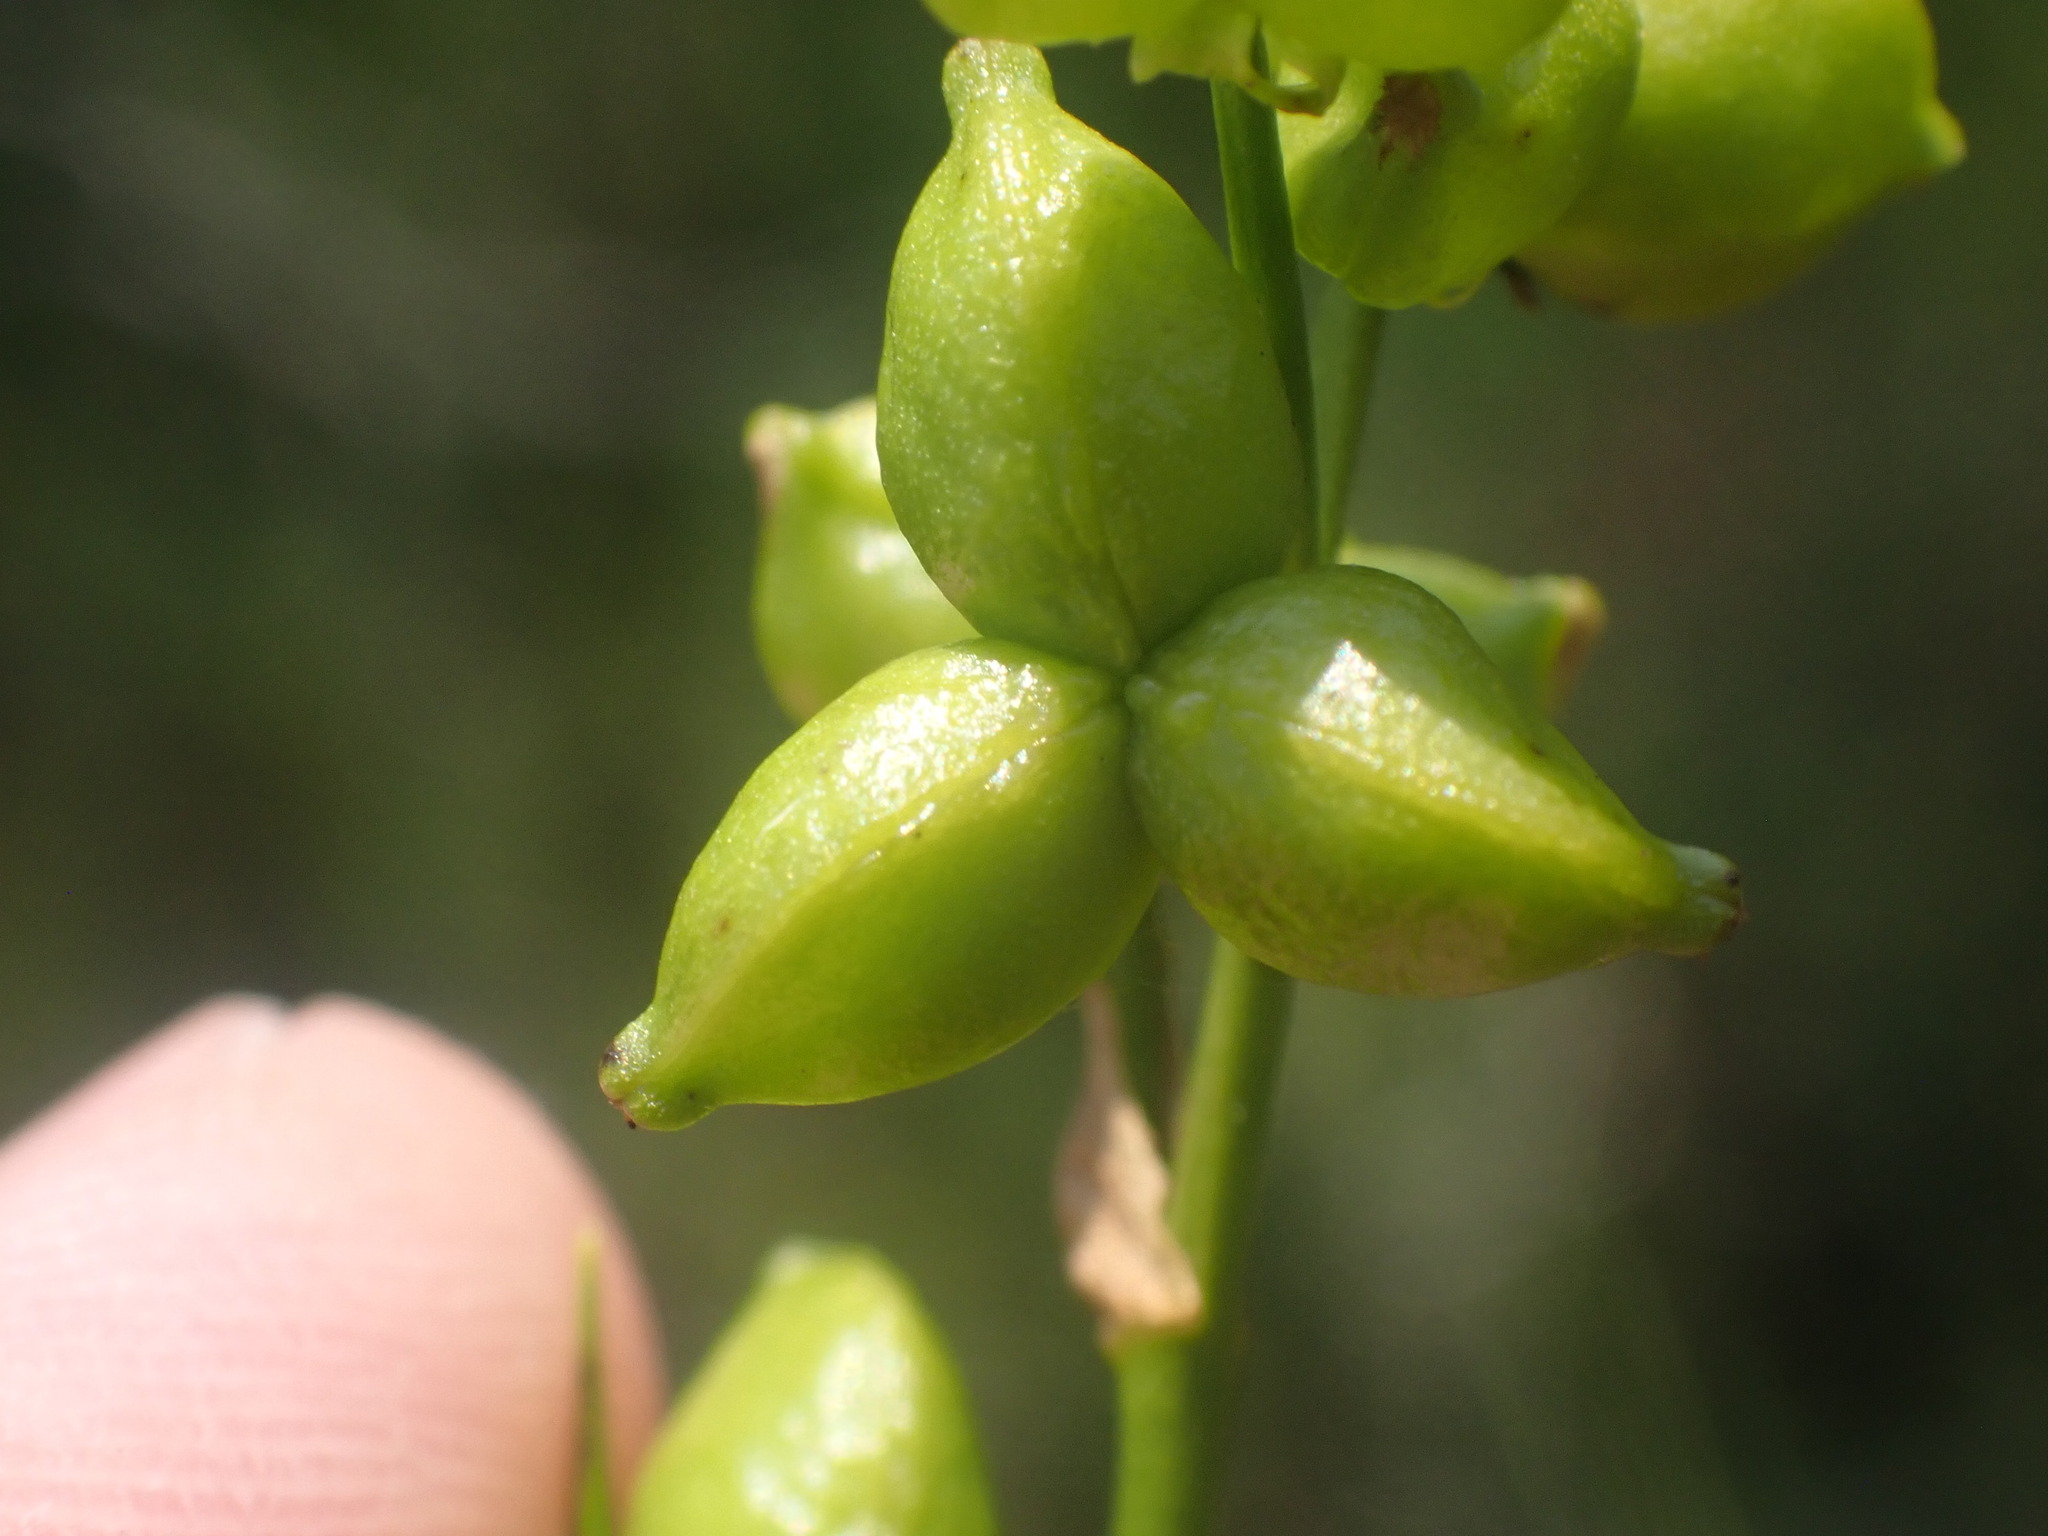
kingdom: Plantae
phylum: Tracheophyta
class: Liliopsida
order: Alismatales
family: Scheuchzeriaceae
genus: Scheuchzeria
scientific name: Scheuchzeria palustris
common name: Rannoch-rush
